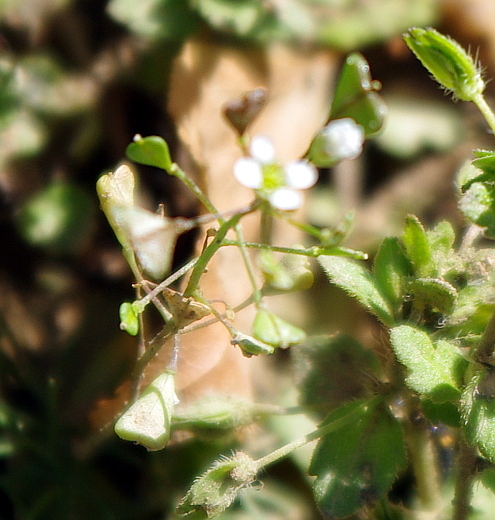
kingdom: Plantae
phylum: Tracheophyta
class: Magnoliopsida
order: Brassicales
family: Brassicaceae
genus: Capsella
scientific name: Capsella bursa-pastoris
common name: Shepherd's purse
